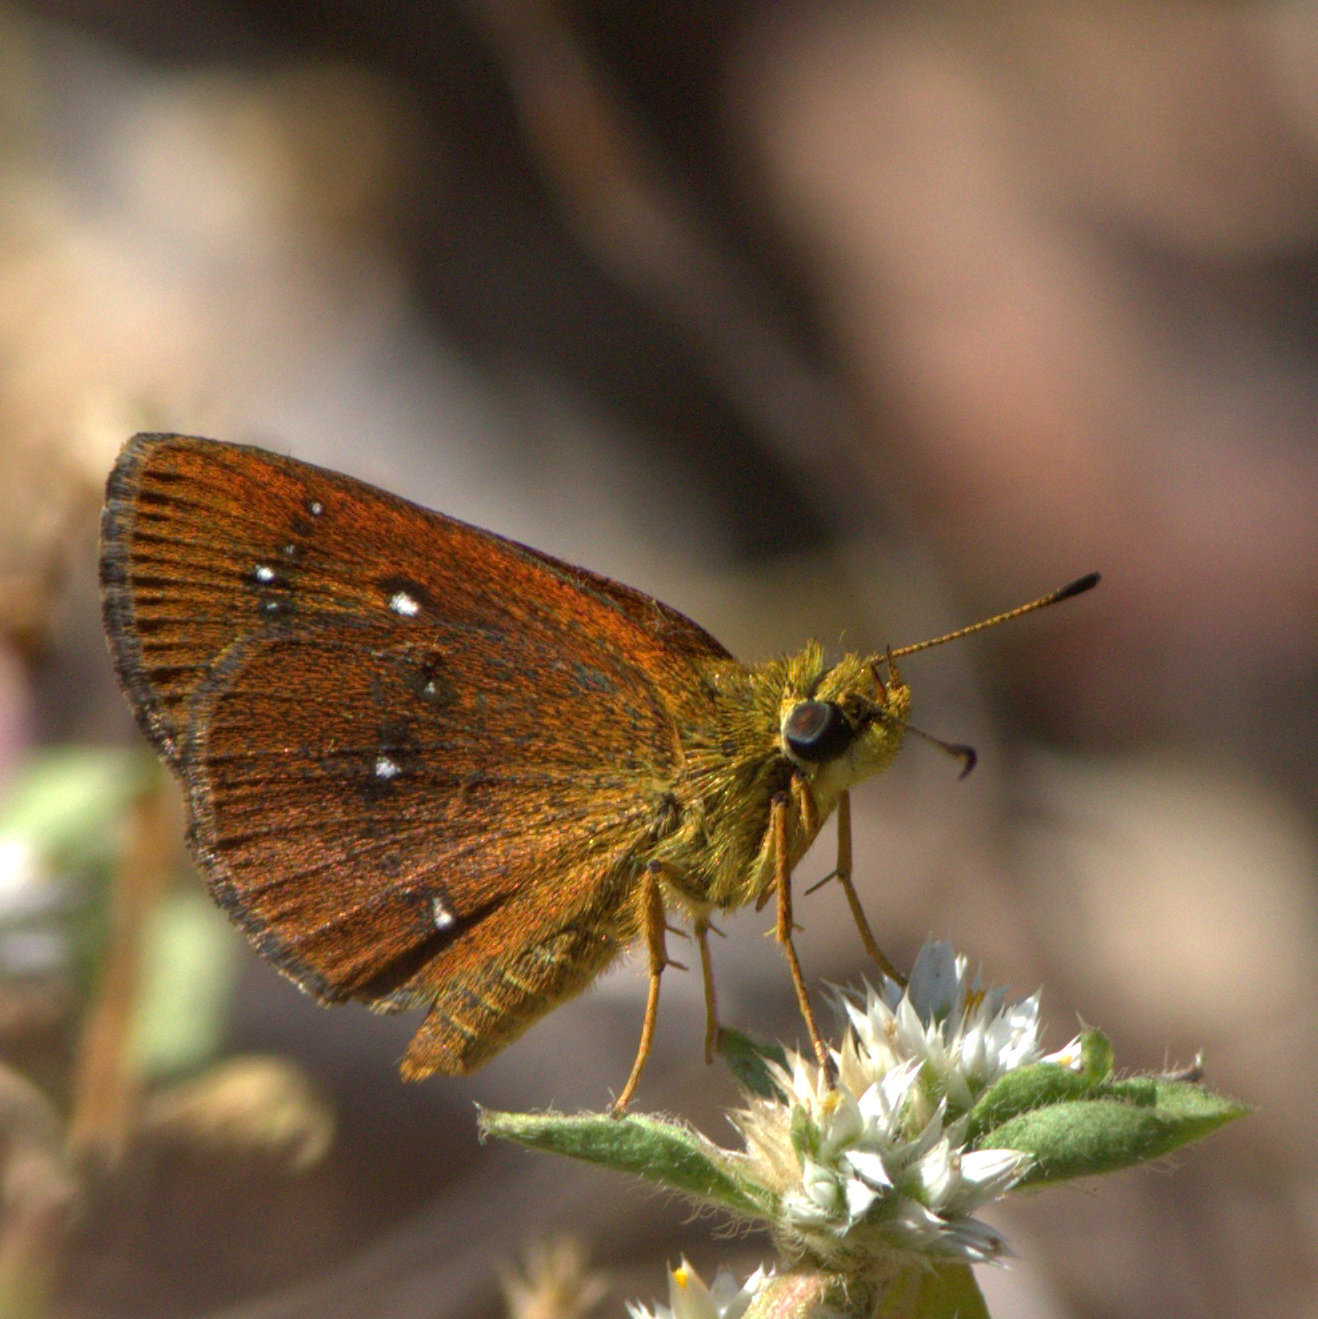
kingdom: Animalia
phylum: Arthropoda
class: Insecta
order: Lepidoptera
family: Hesperiidae
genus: Iambrix
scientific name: Iambrix salsala
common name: Chestnut bob
